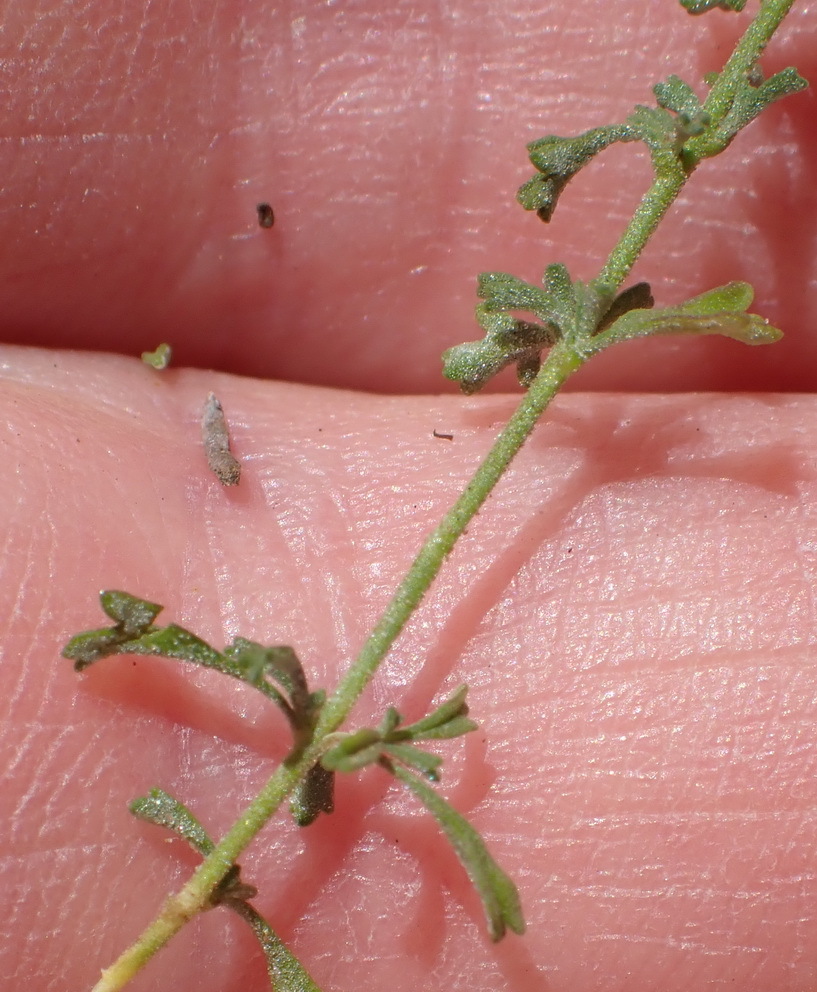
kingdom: Plantae
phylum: Tracheophyta
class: Magnoliopsida
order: Lamiales
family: Scrophulariaceae
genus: Jamesbrittenia
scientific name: Jamesbrittenia argentea
